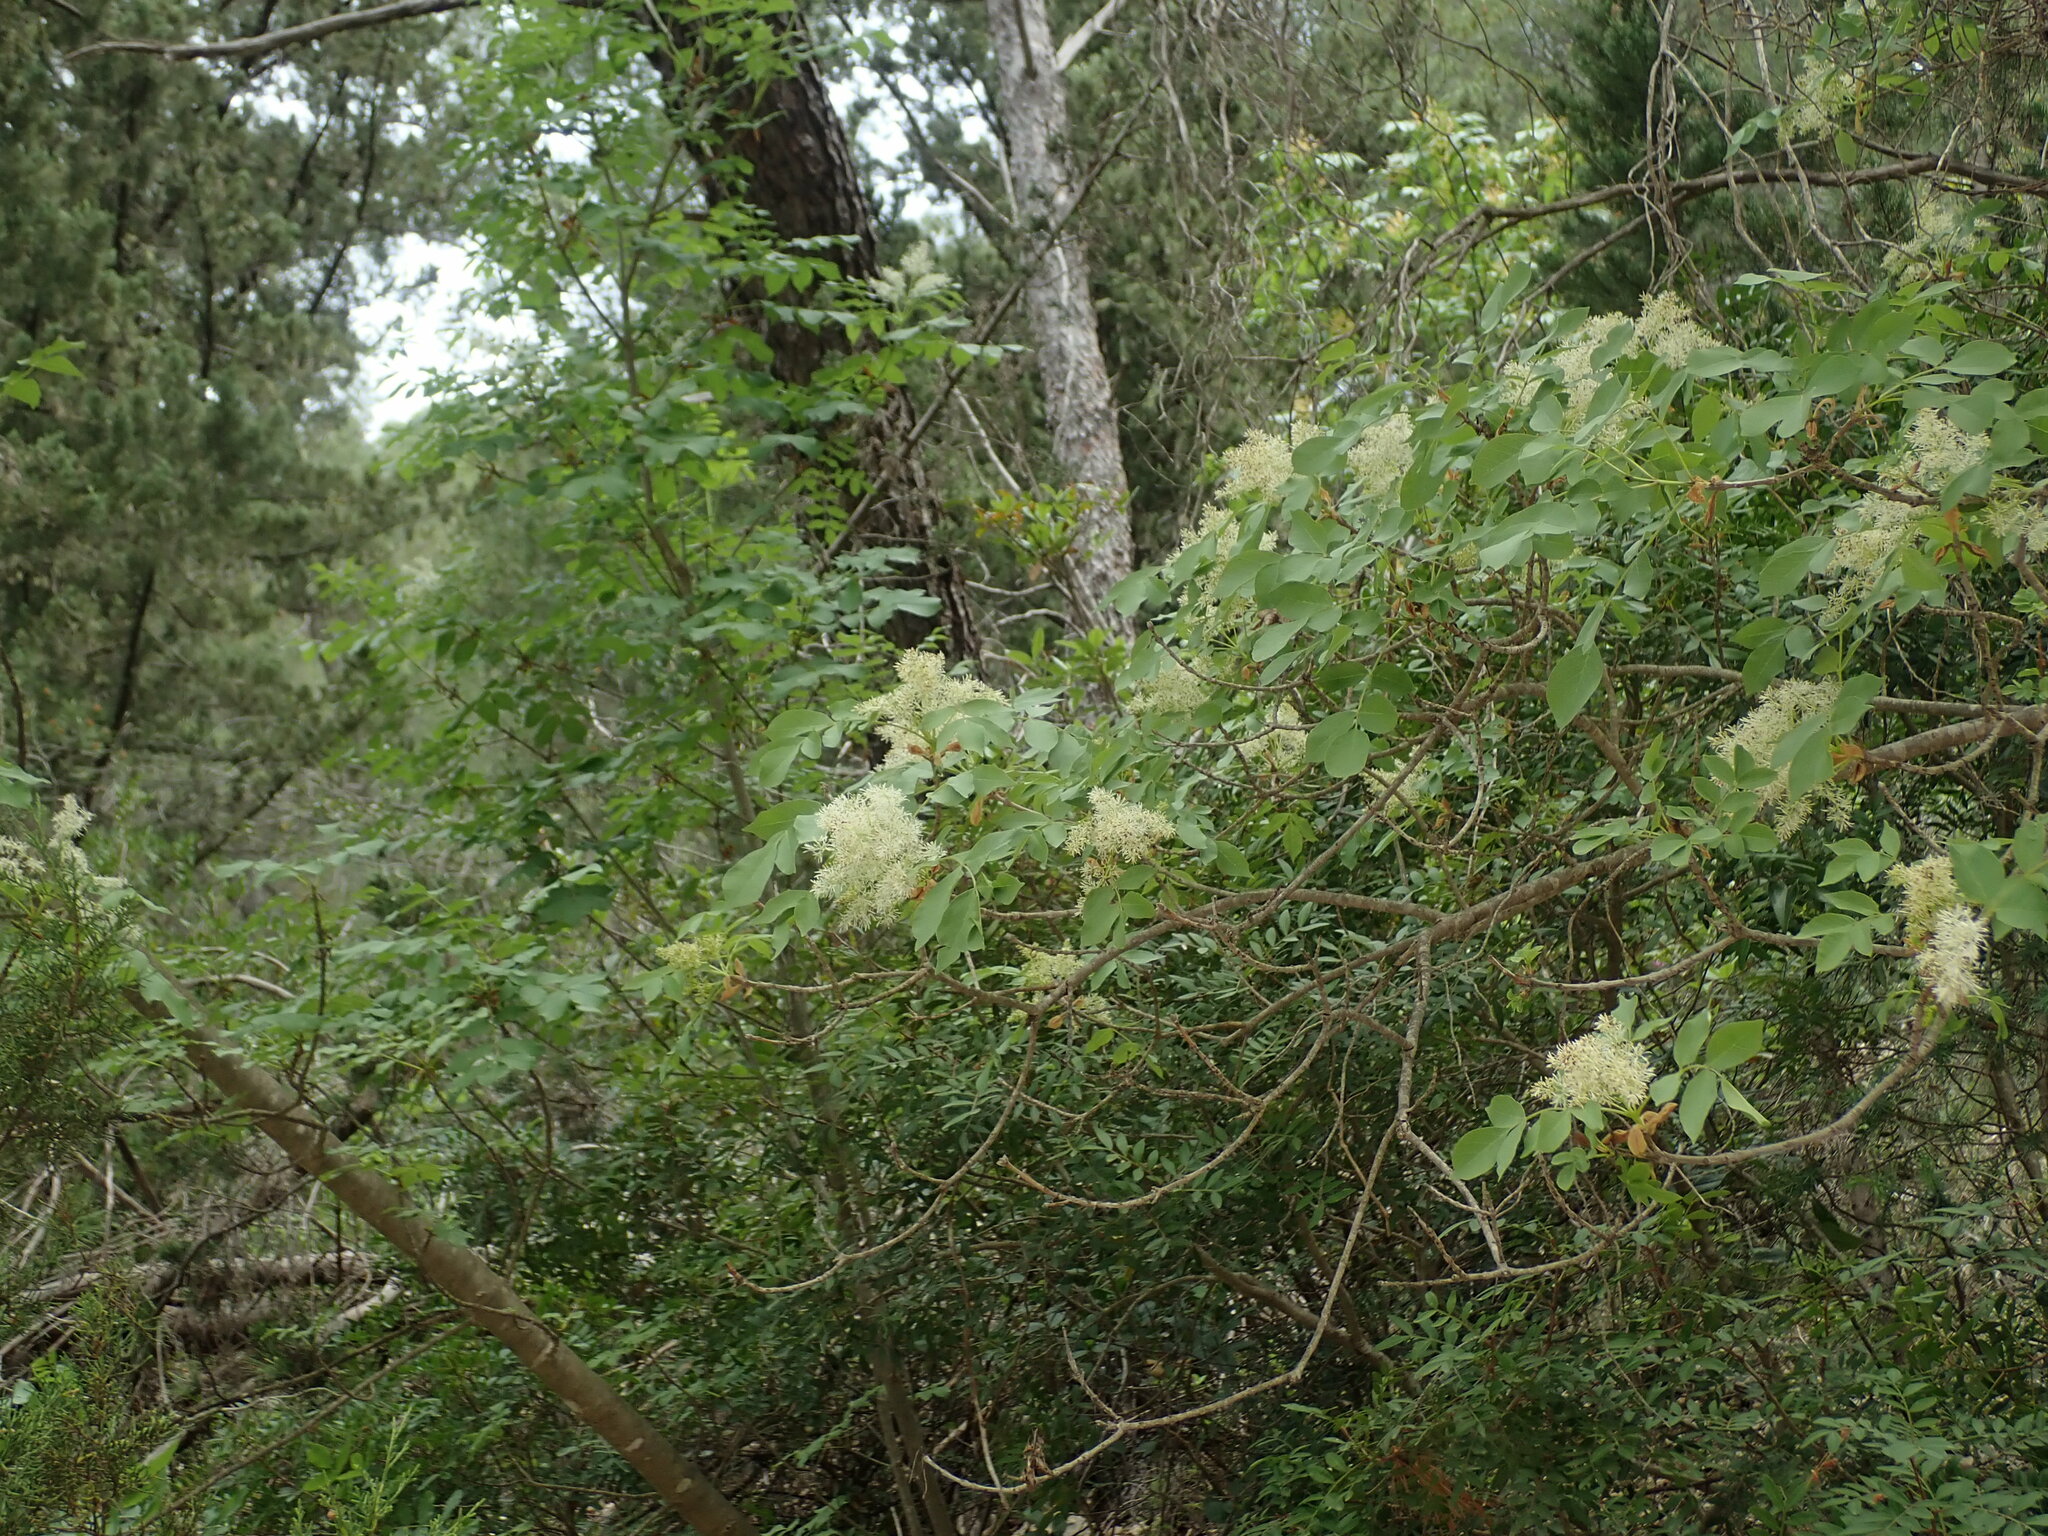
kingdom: Plantae
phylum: Tracheophyta
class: Magnoliopsida
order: Lamiales
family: Oleaceae
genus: Fraxinus
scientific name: Fraxinus ornus
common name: Manna ash
